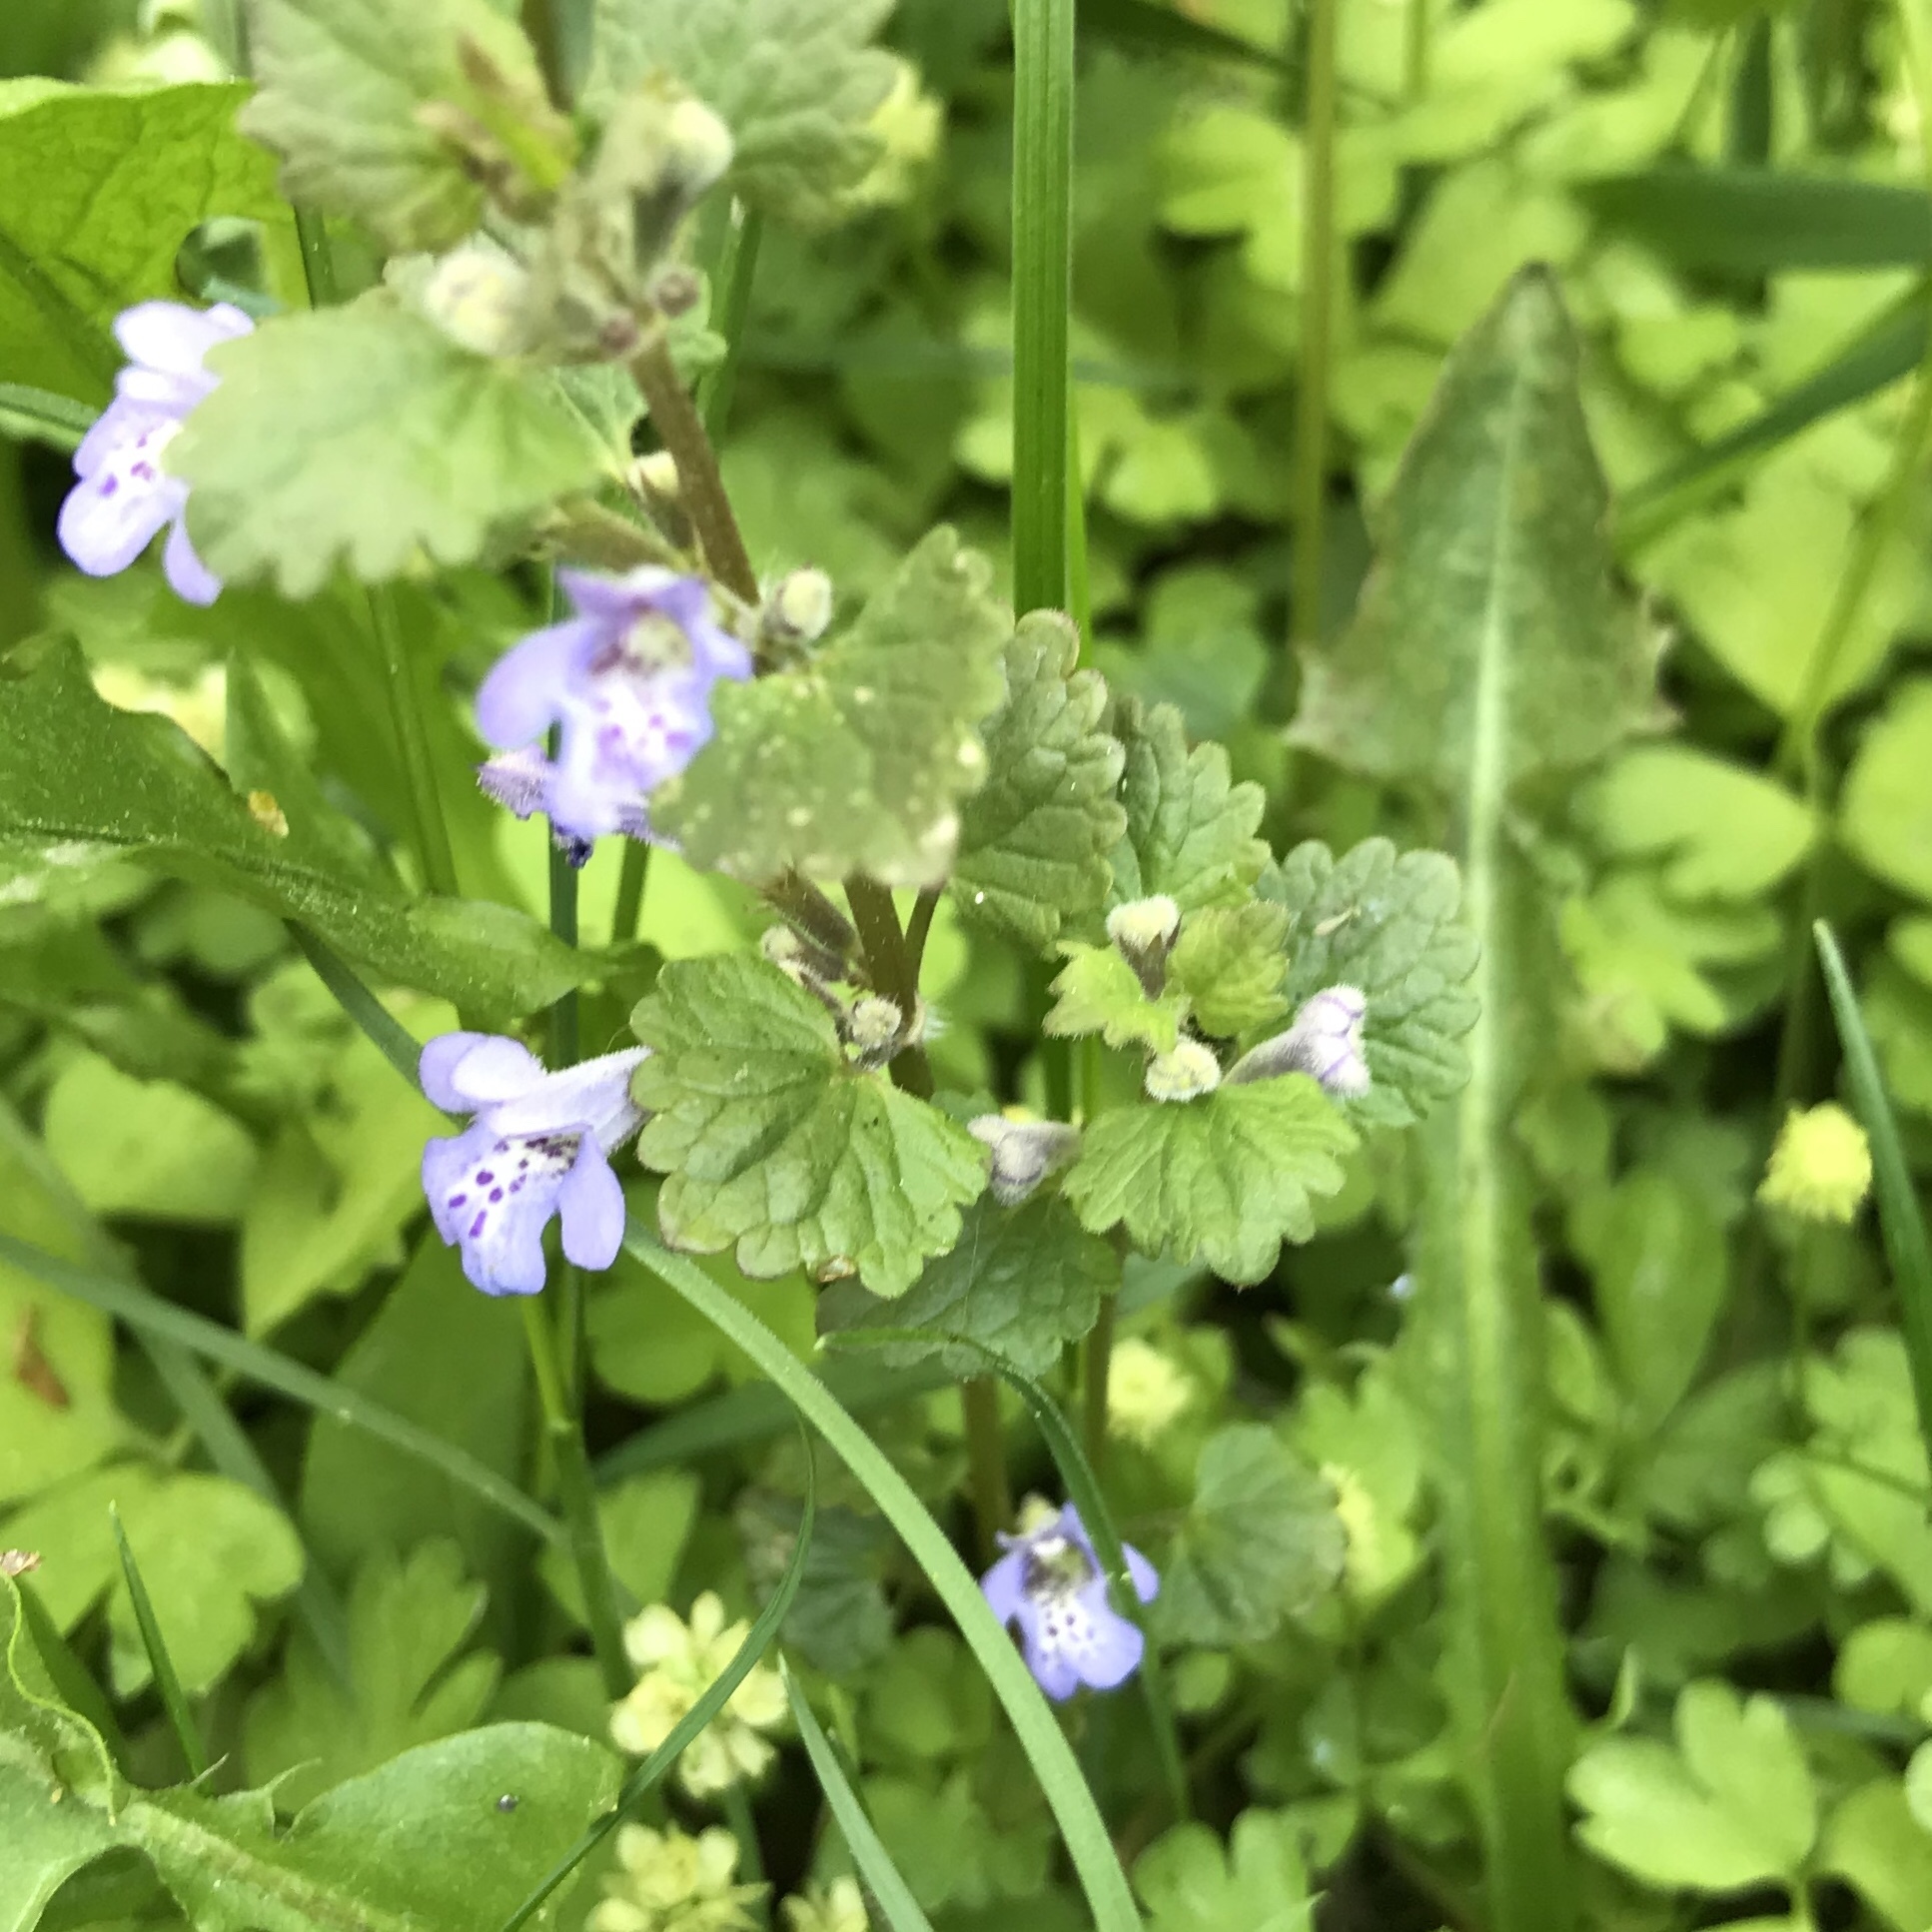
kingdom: Plantae
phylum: Tracheophyta
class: Magnoliopsida
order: Lamiales
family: Lamiaceae
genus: Glechoma
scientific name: Glechoma hederacea
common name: Ground ivy
